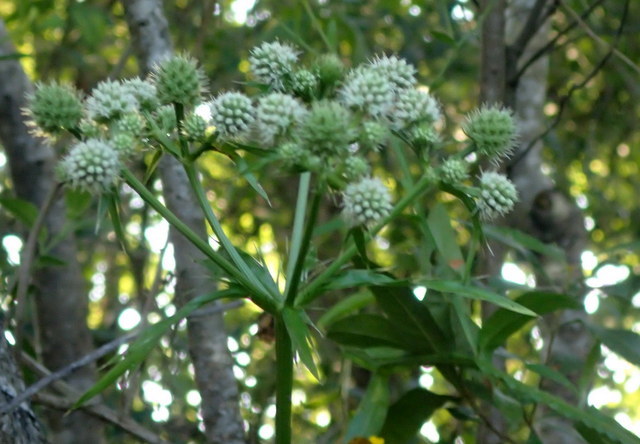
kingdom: Plantae
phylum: Tracheophyta
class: Magnoliopsida
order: Apiales
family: Apiaceae
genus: Eryngium
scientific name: Eryngium yuccifolium
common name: Button eryngo
